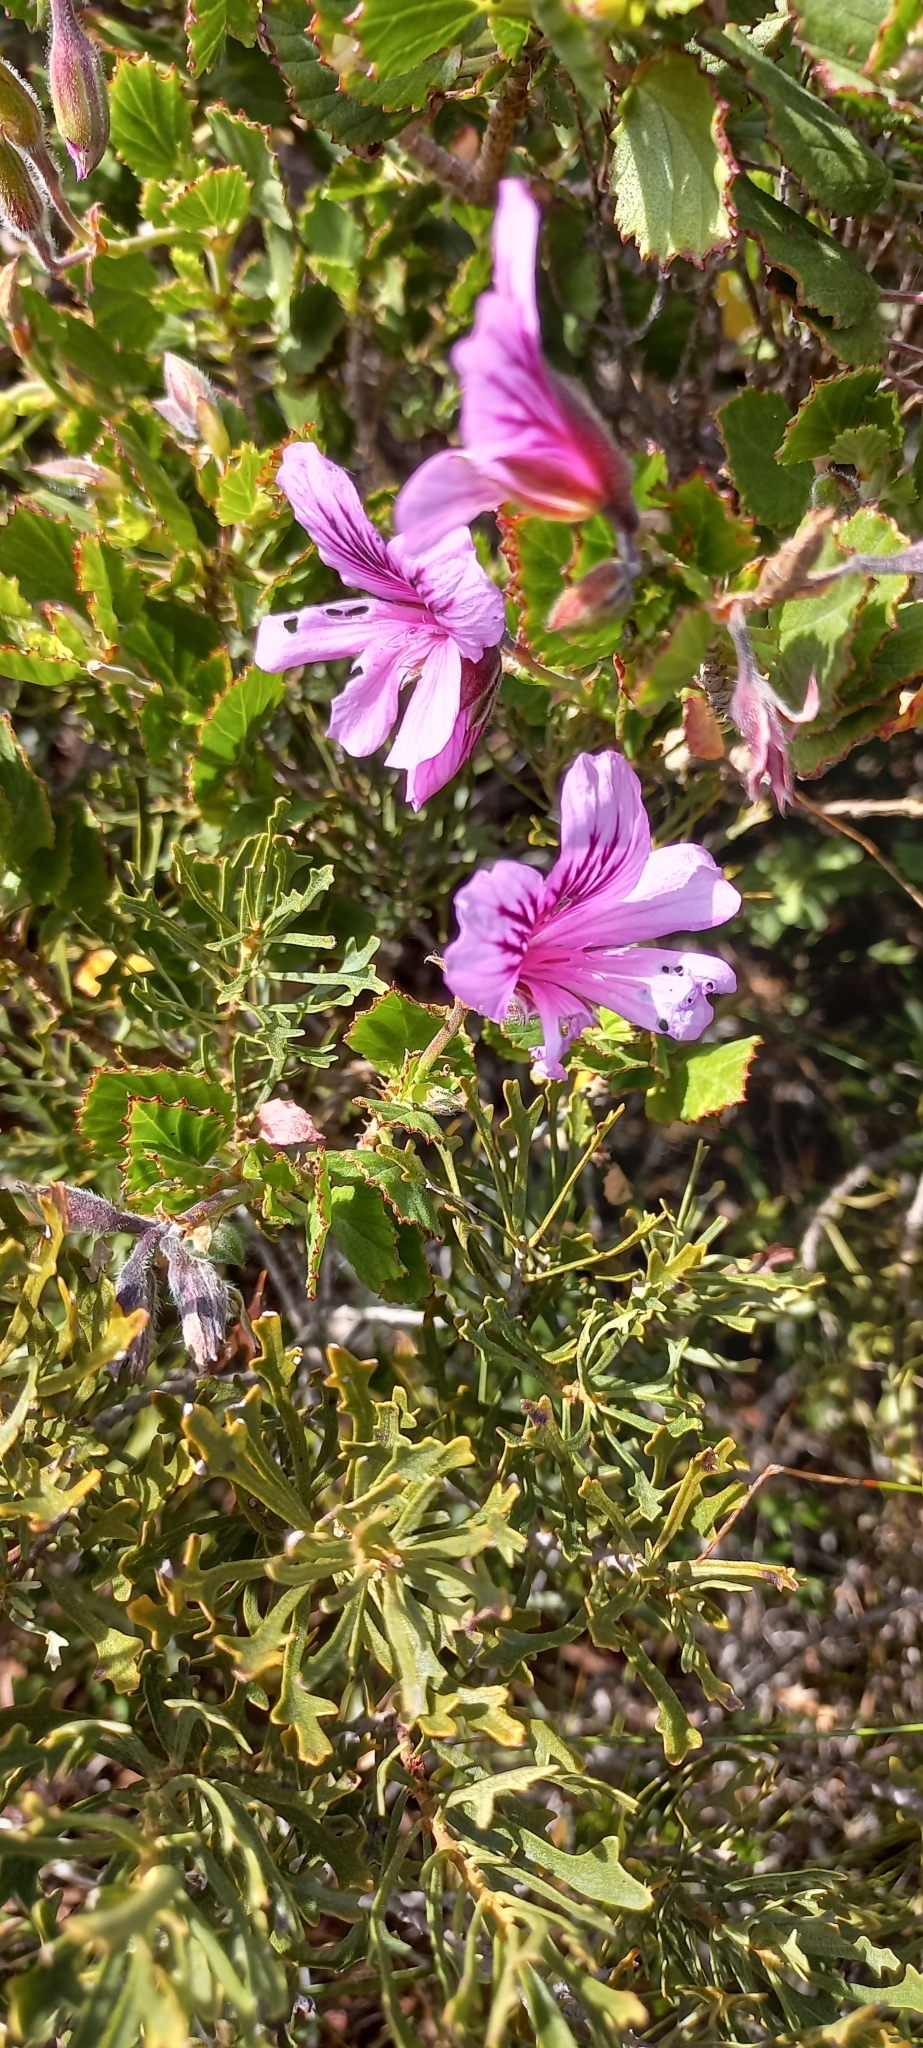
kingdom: Plantae
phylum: Tracheophyta
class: Magnoliopsida
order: Geraniales
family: Geraniaceae
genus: Pelargonium
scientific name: Pelargonium betulinum
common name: Birch-leaf pelargonium
